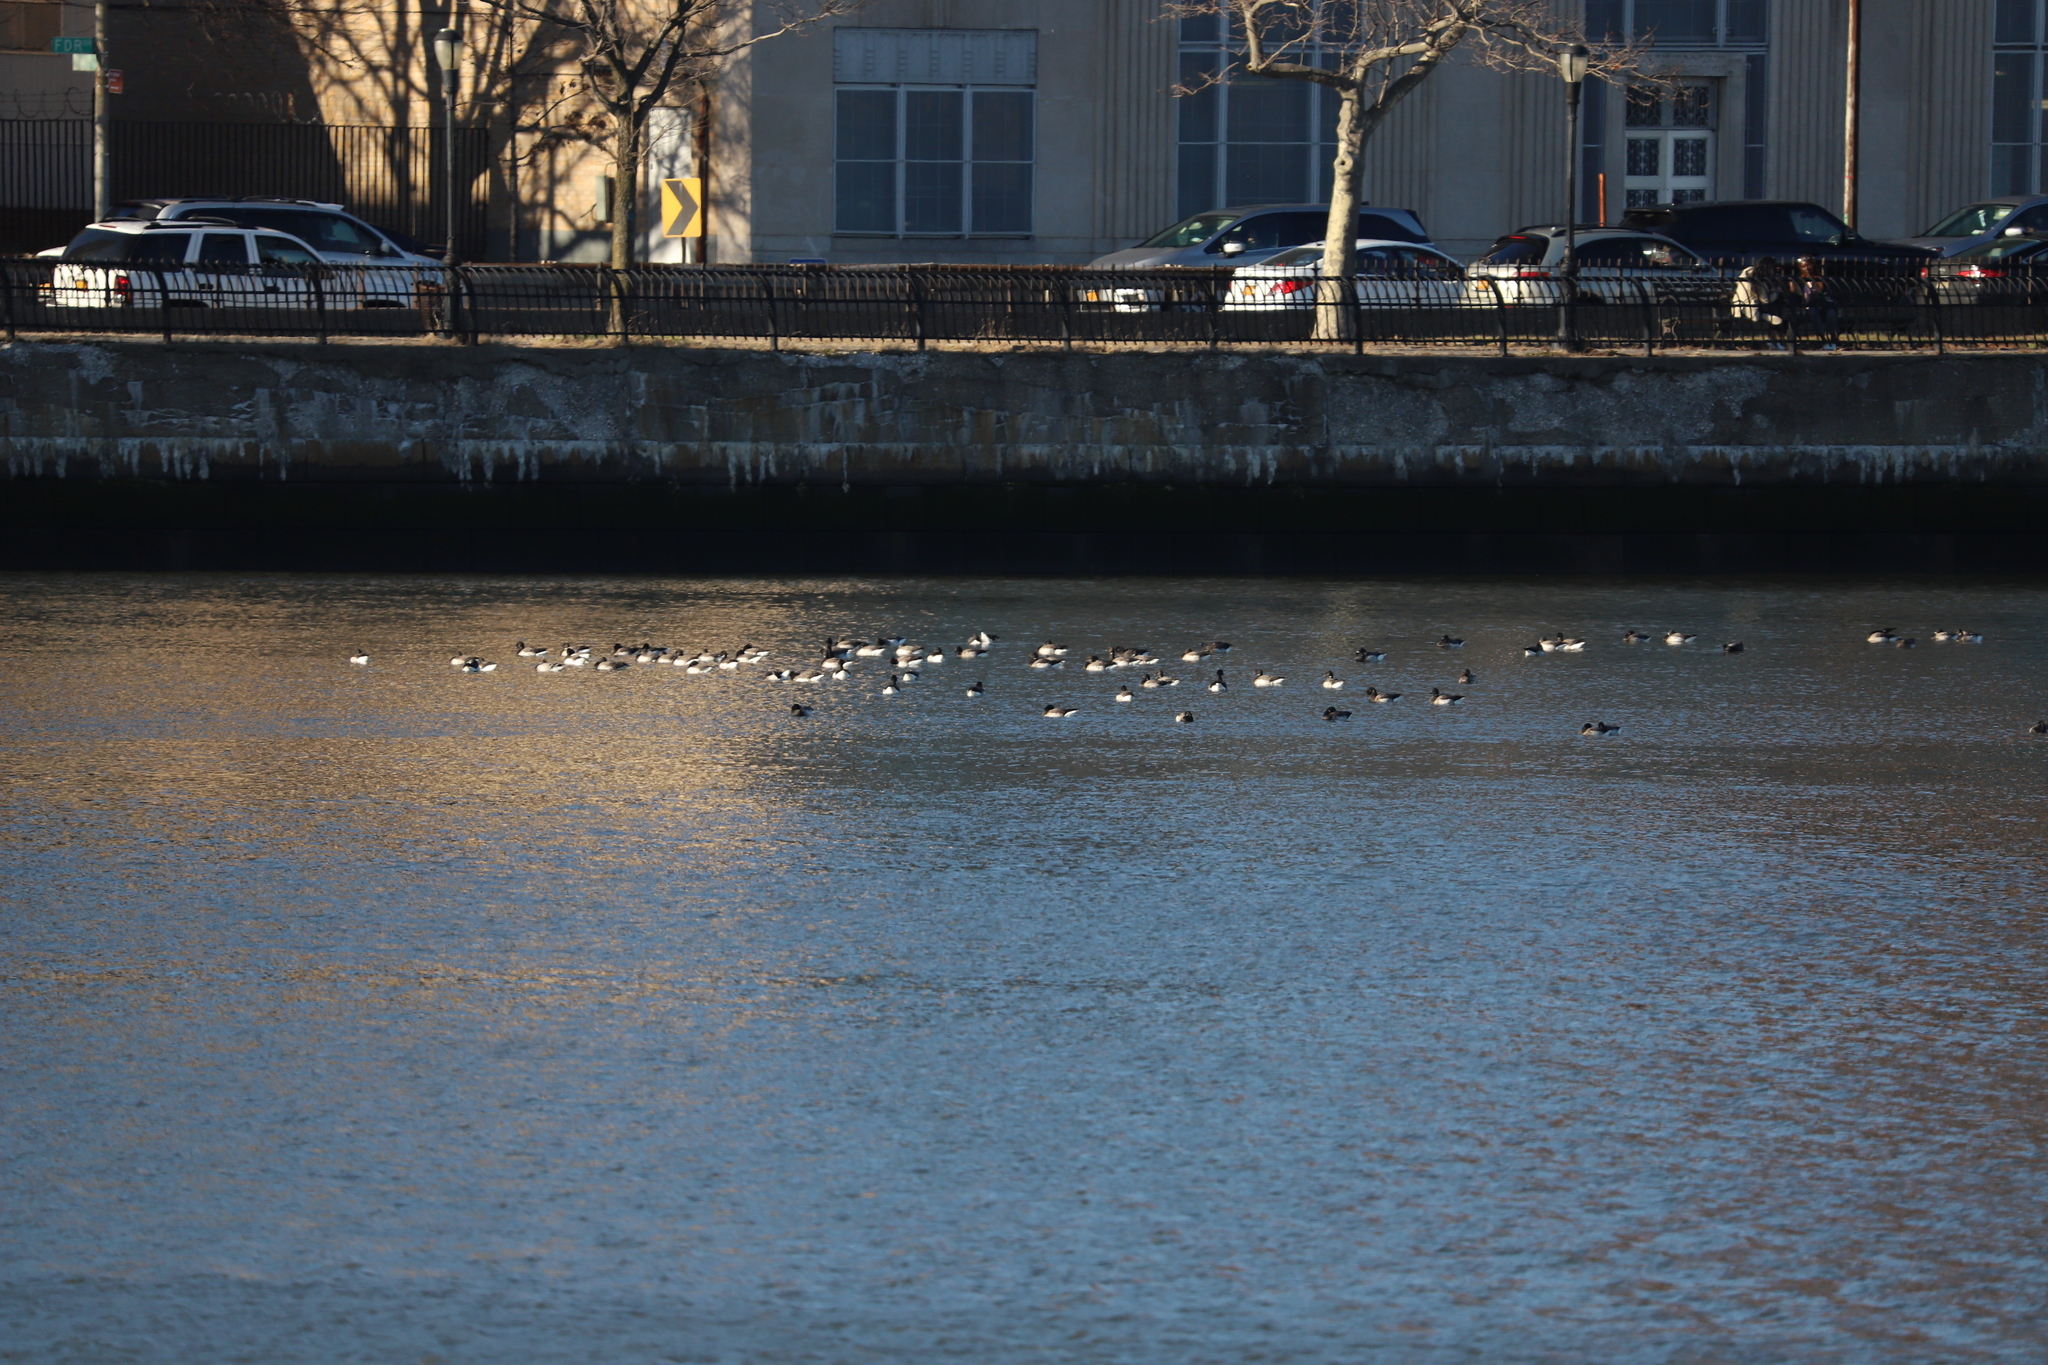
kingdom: Animalia
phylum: Chordata
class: Aves
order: Anseriformes
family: Anatidae
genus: Branta
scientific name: Branta bernicla
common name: Brant goose
